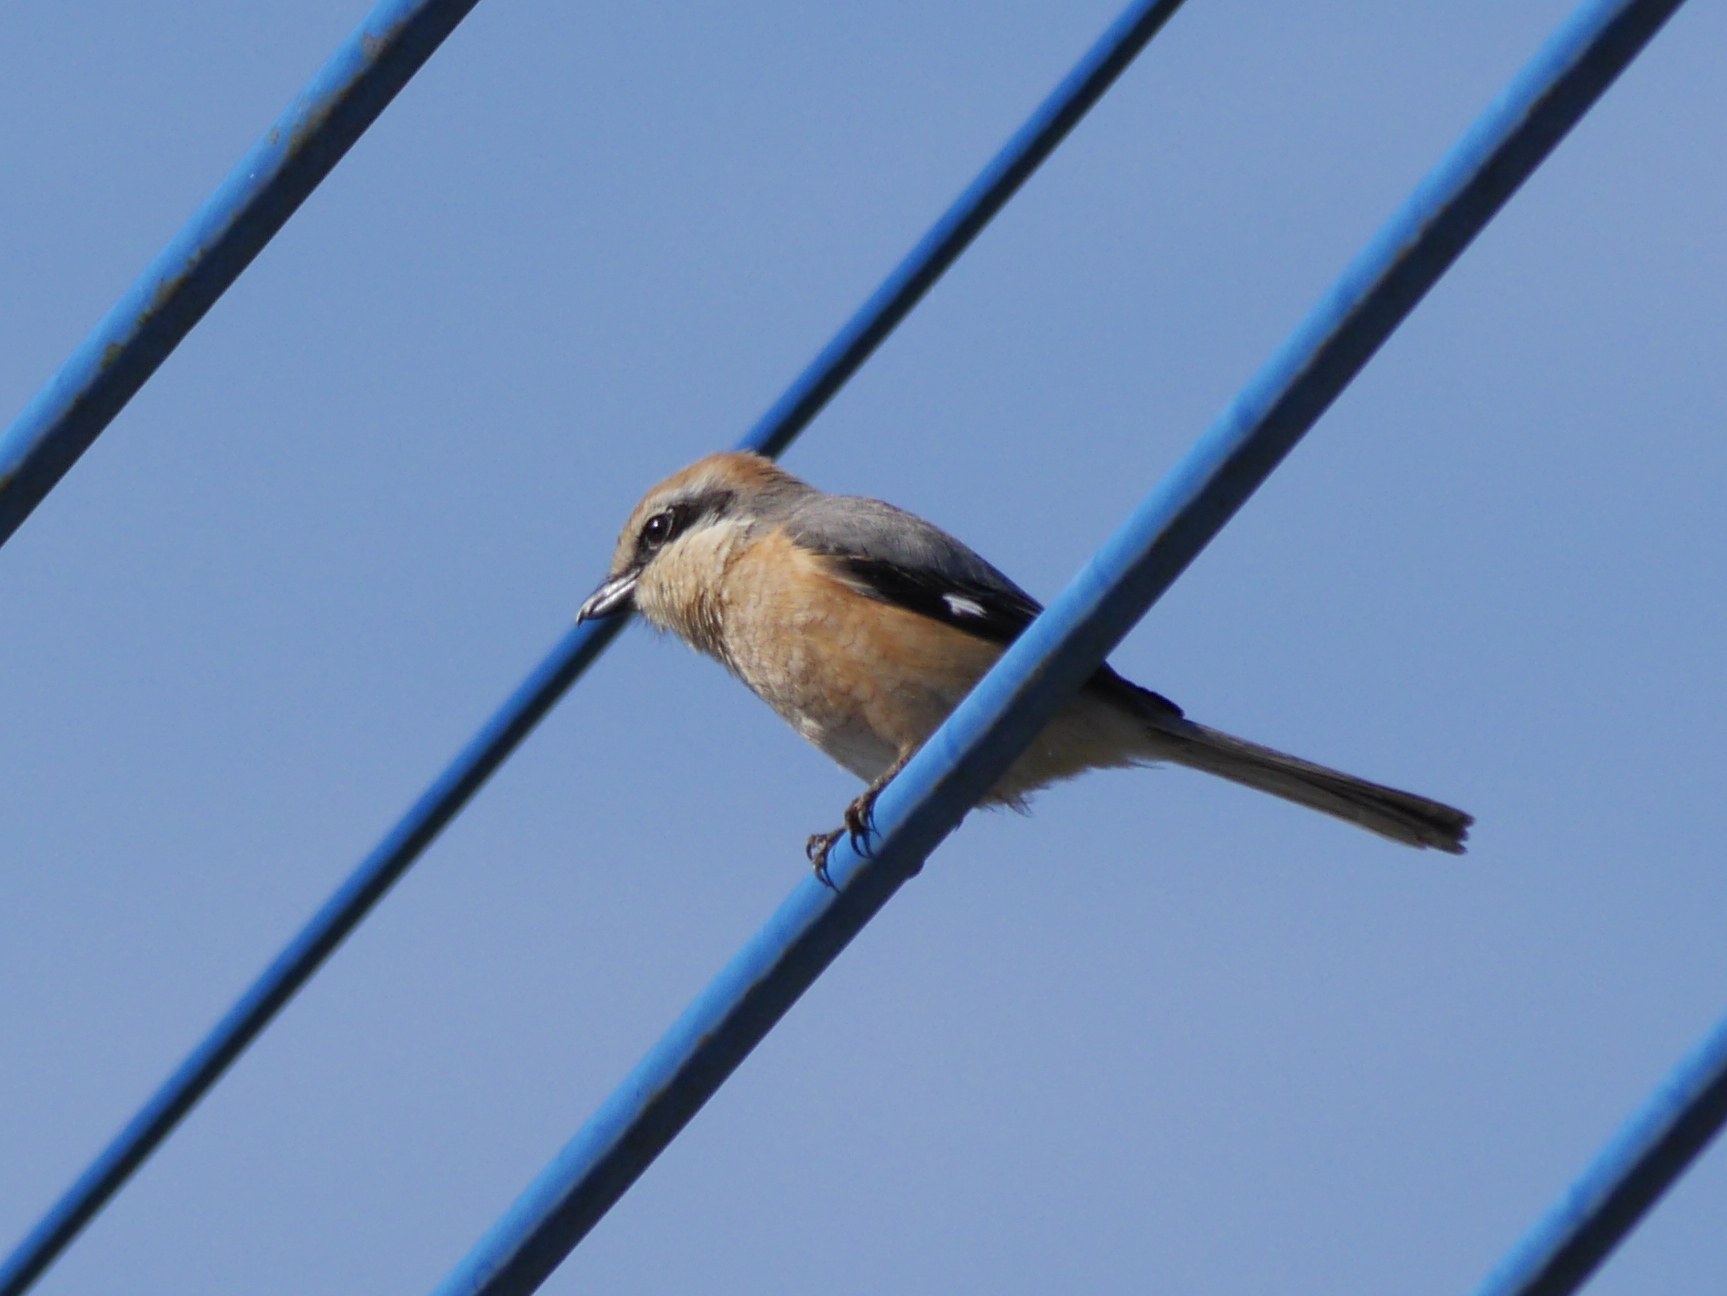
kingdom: Animalia
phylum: Chordata
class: Aves
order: Passeriformes
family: Laniidae
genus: Lanius
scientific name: Lanius bucephalus
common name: Bull-headed shrike
